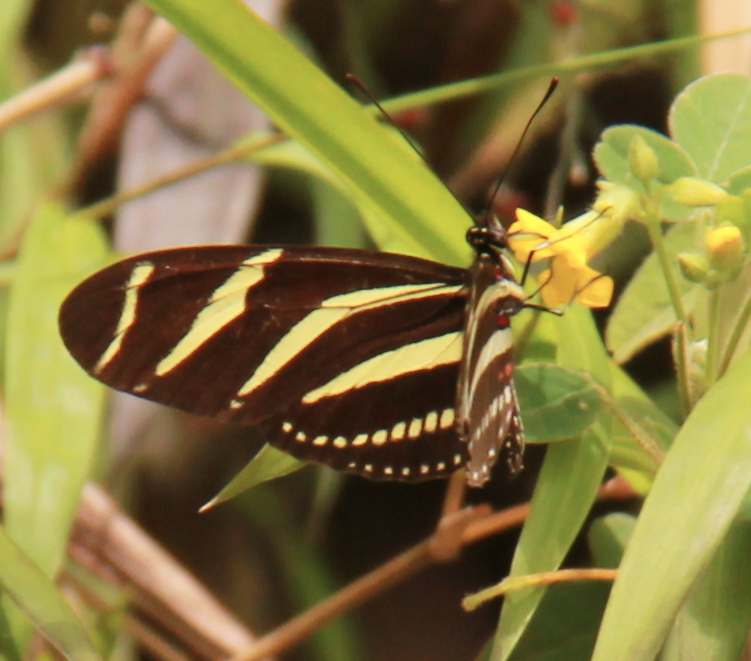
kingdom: Animalia
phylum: Arthropoda
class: Insecta
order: Lepidoptera
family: Nymphalidae
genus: Heliconius
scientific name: Heliconius charithonia
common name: Zebra long wing
